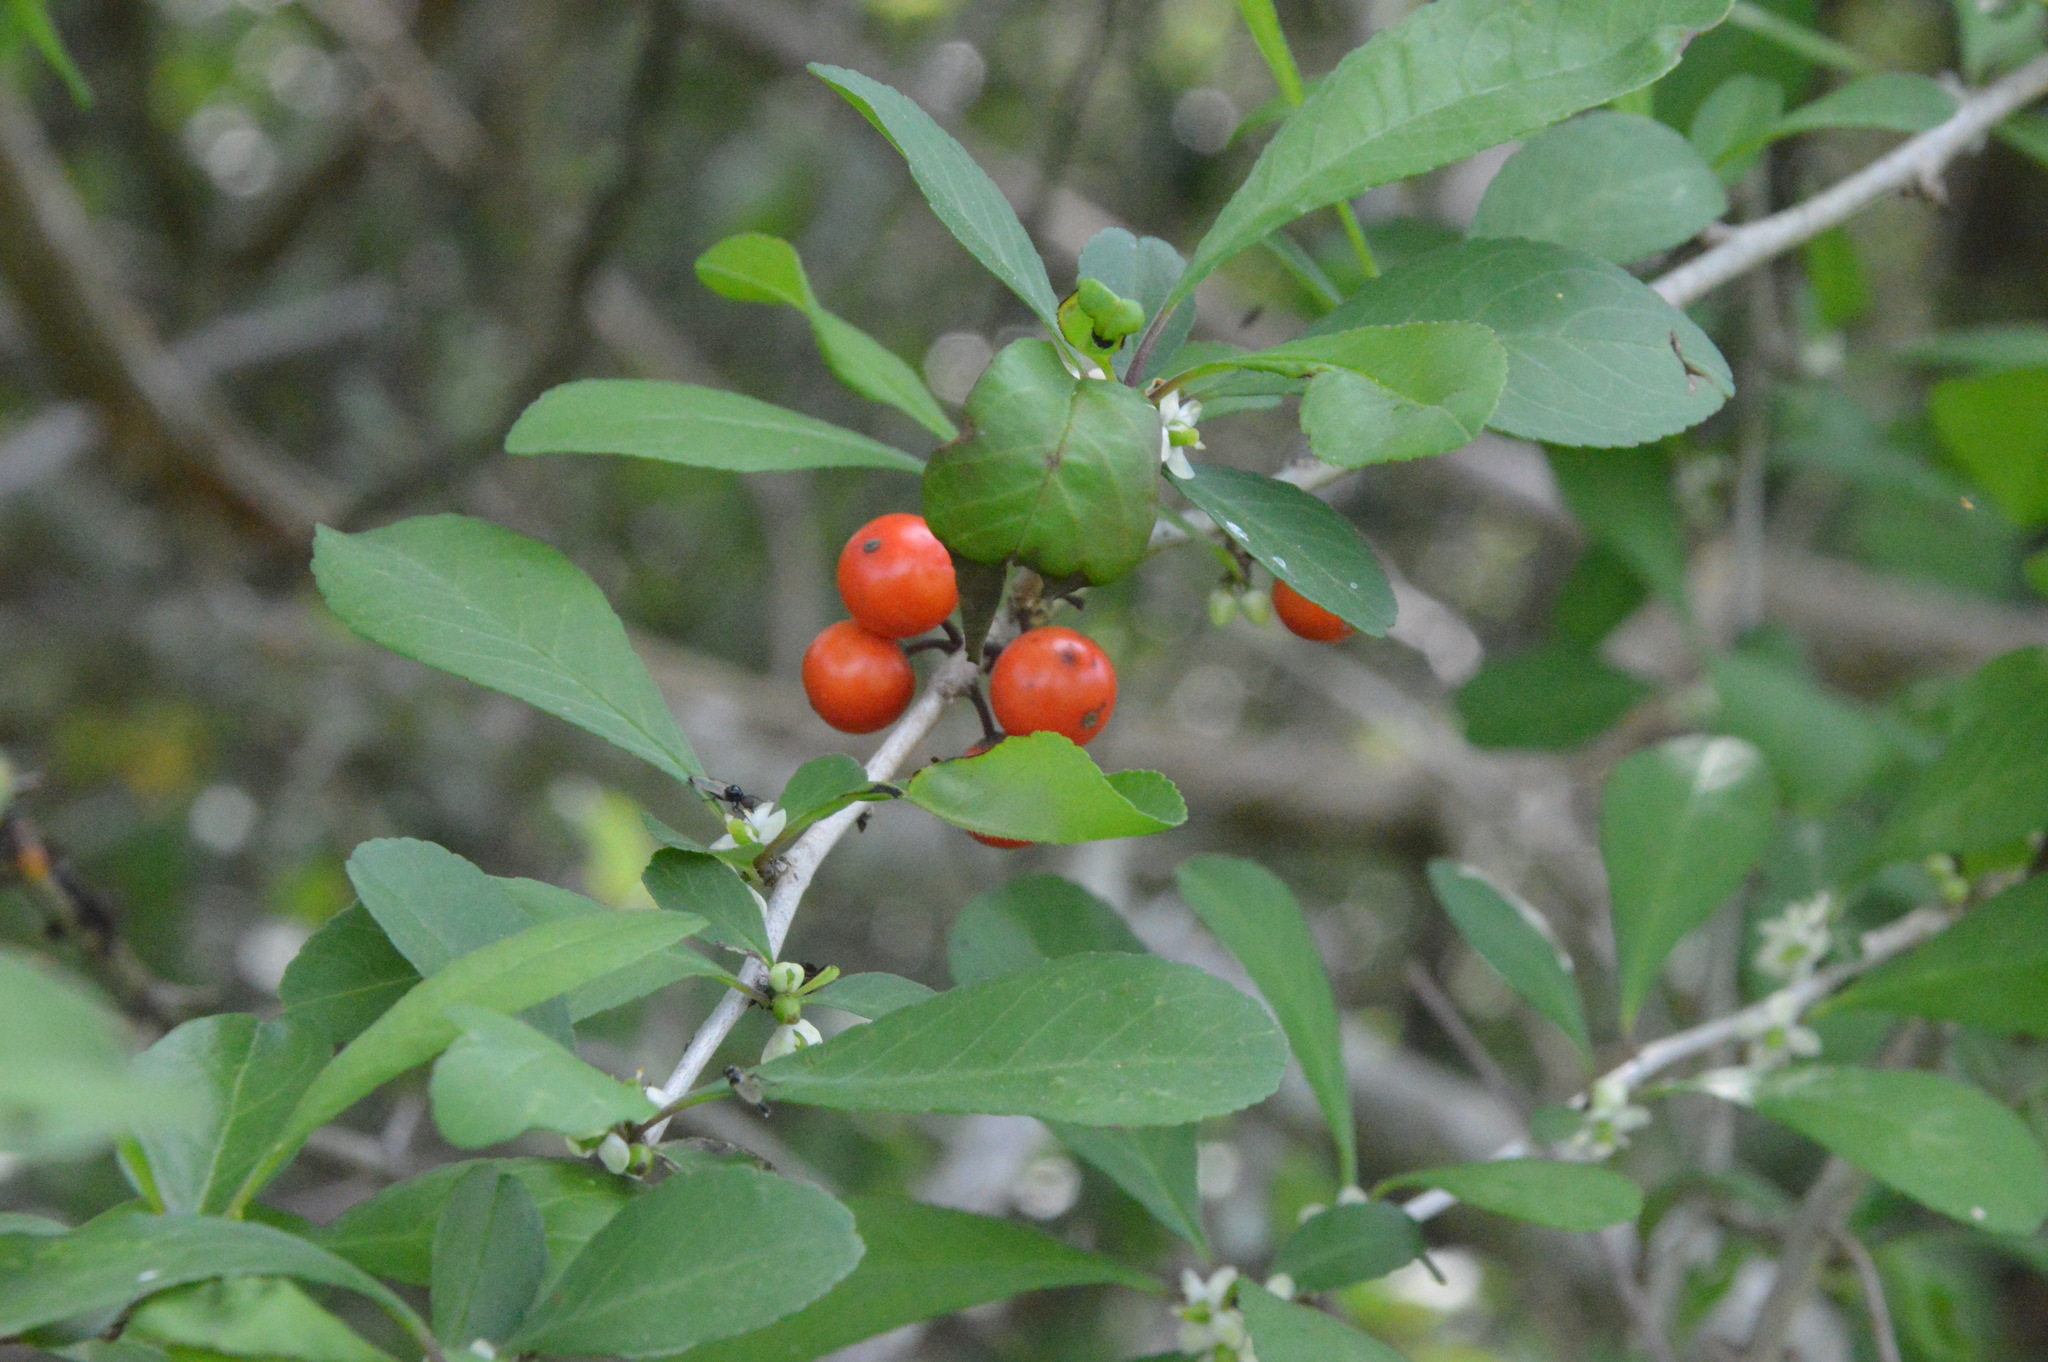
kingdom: Plantae
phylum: Tracheophyta
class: Magnoliopsida
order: Aquifoliales
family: Aquifoliaceae
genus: Ilex
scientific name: Ilex decidua
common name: Possum-haw
